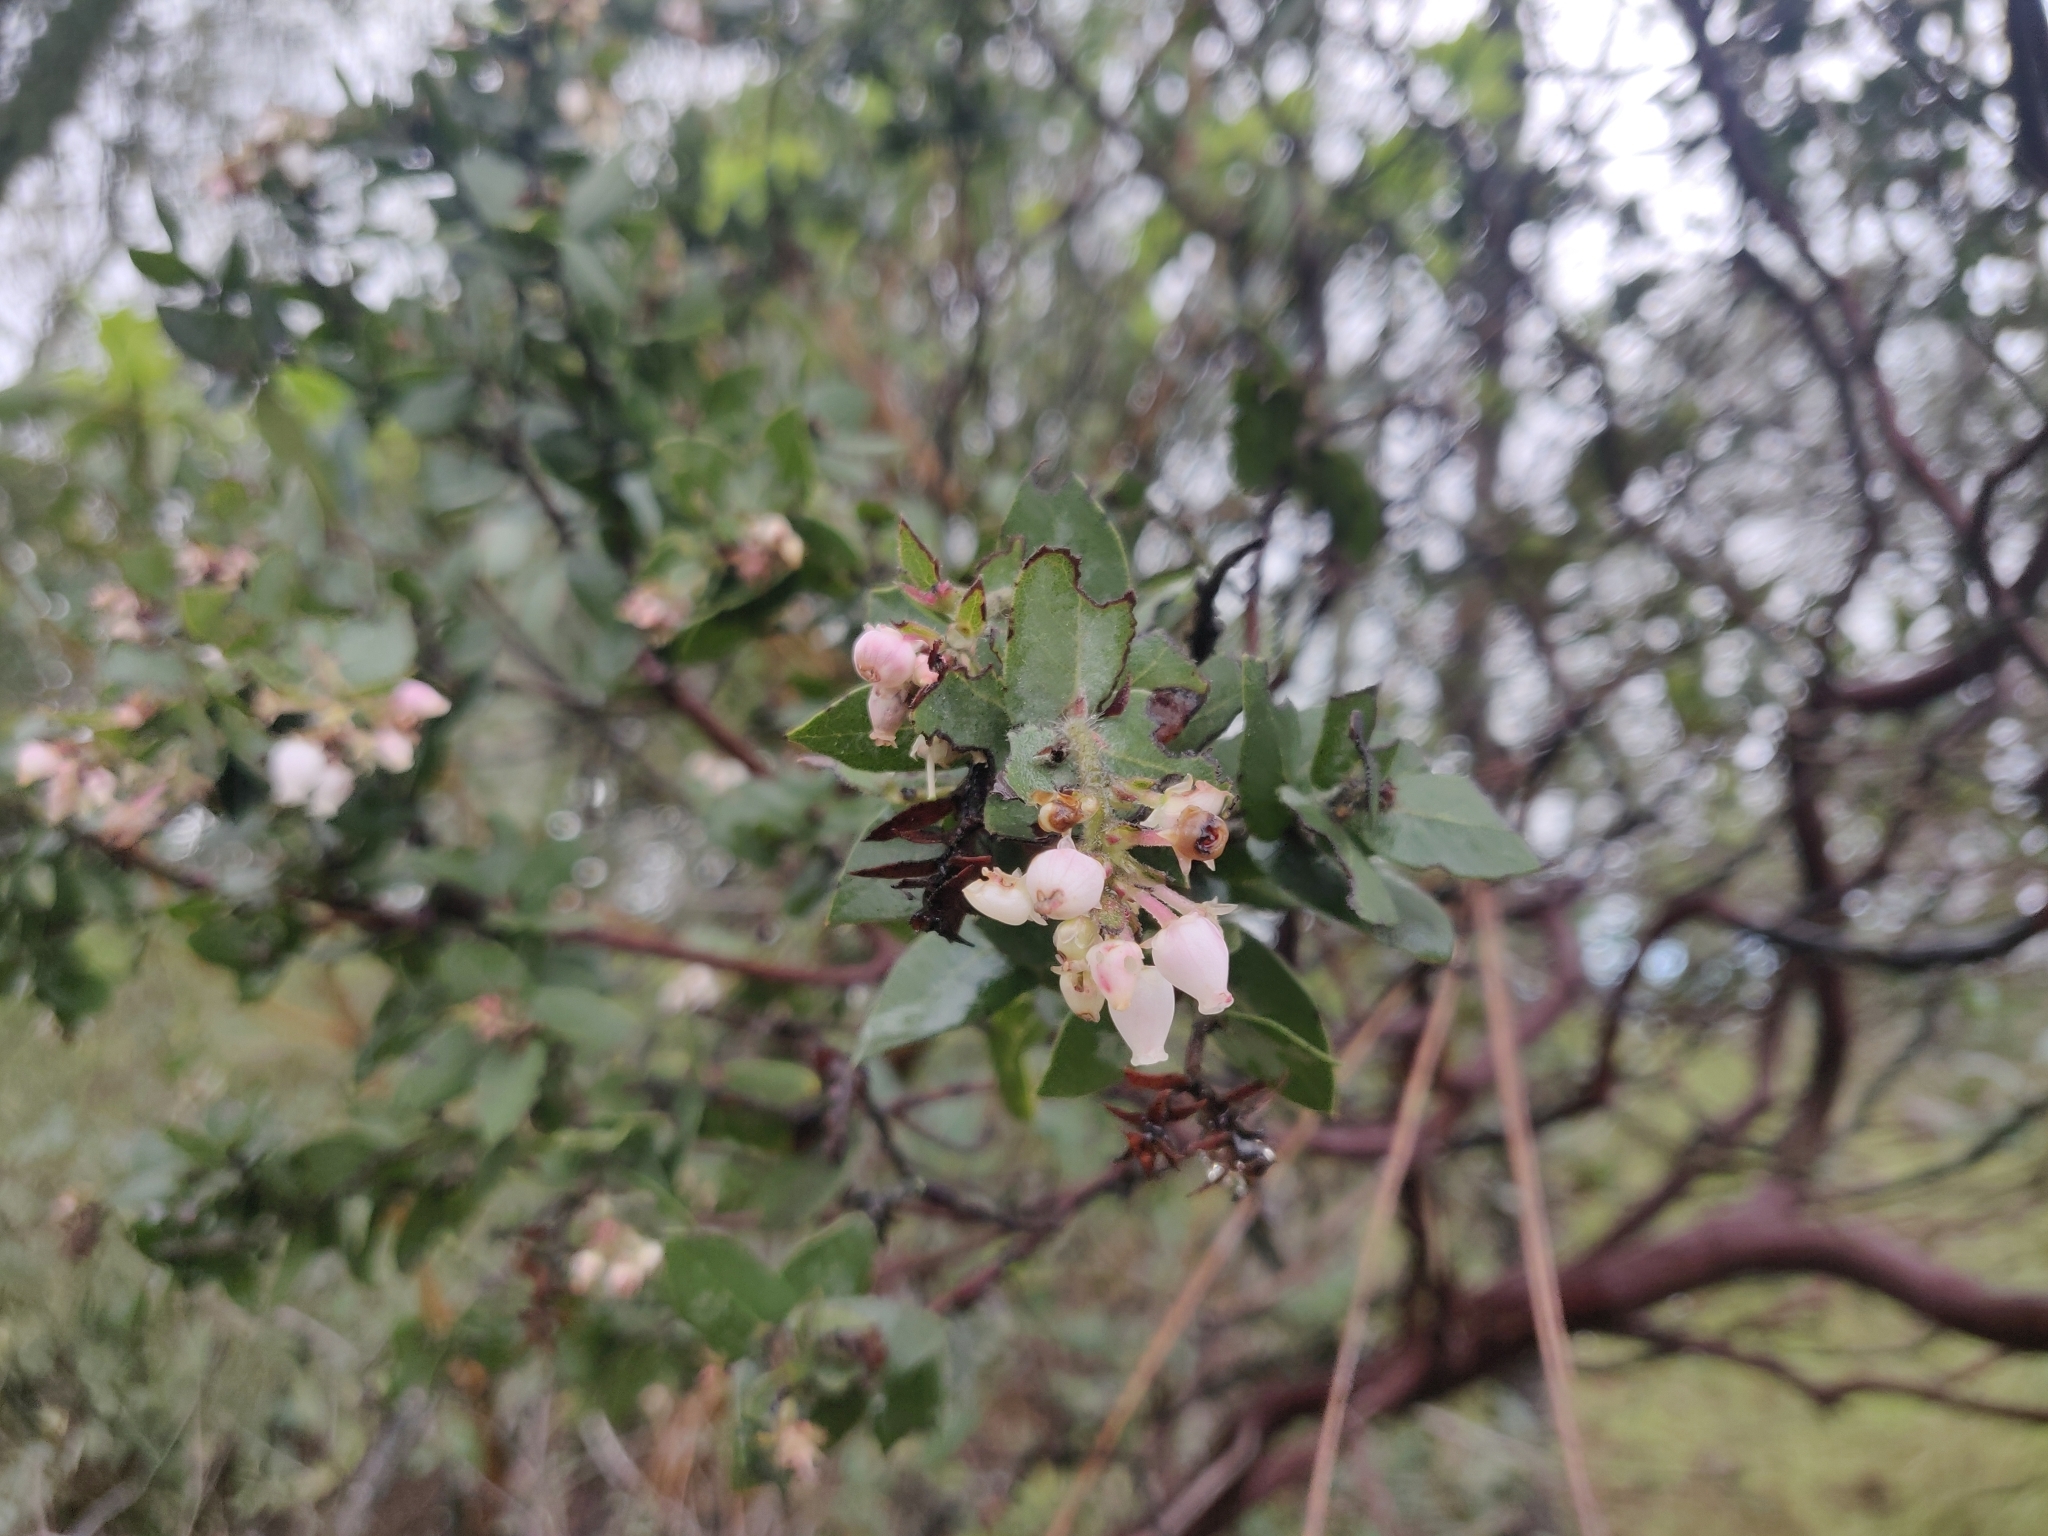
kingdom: Plantae
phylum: Tracheophyta
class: Magnoliopsida
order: Ericales
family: Ericaceae
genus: Arctostaphylos
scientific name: Arctostaphylos auriculata
